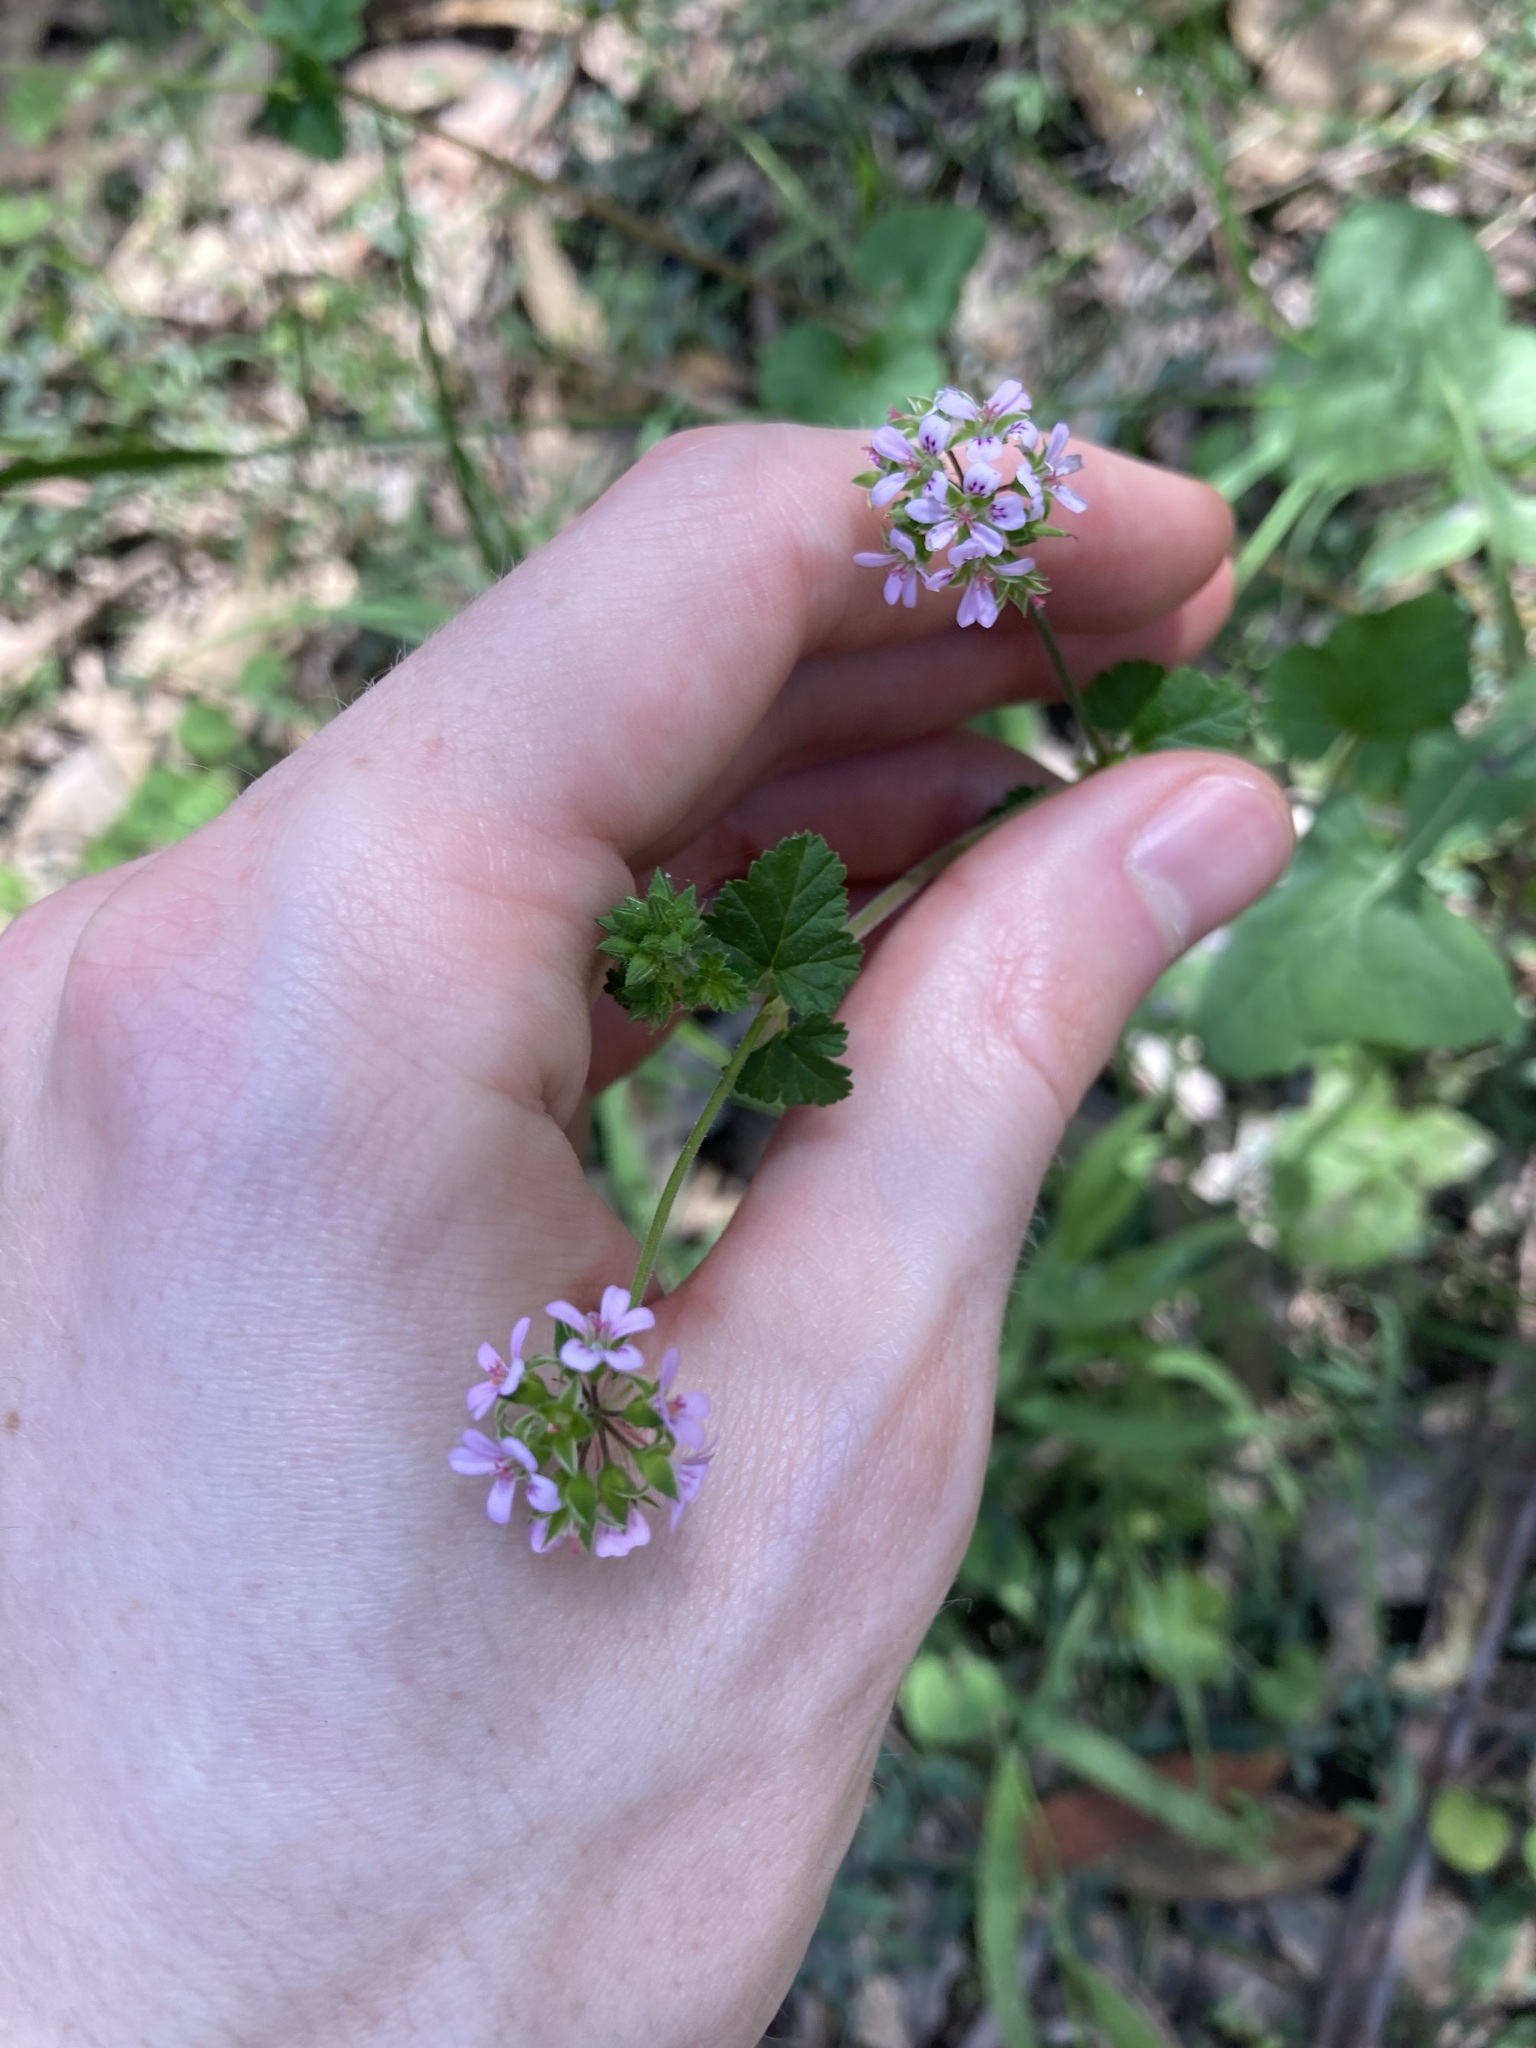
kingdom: Plantae
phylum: Tracheophyta
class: Magnoliopsida
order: Geraniales
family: Geraniaceae
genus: Pelargonium
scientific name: Pelargonium inodorum
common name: Kopata geranium
